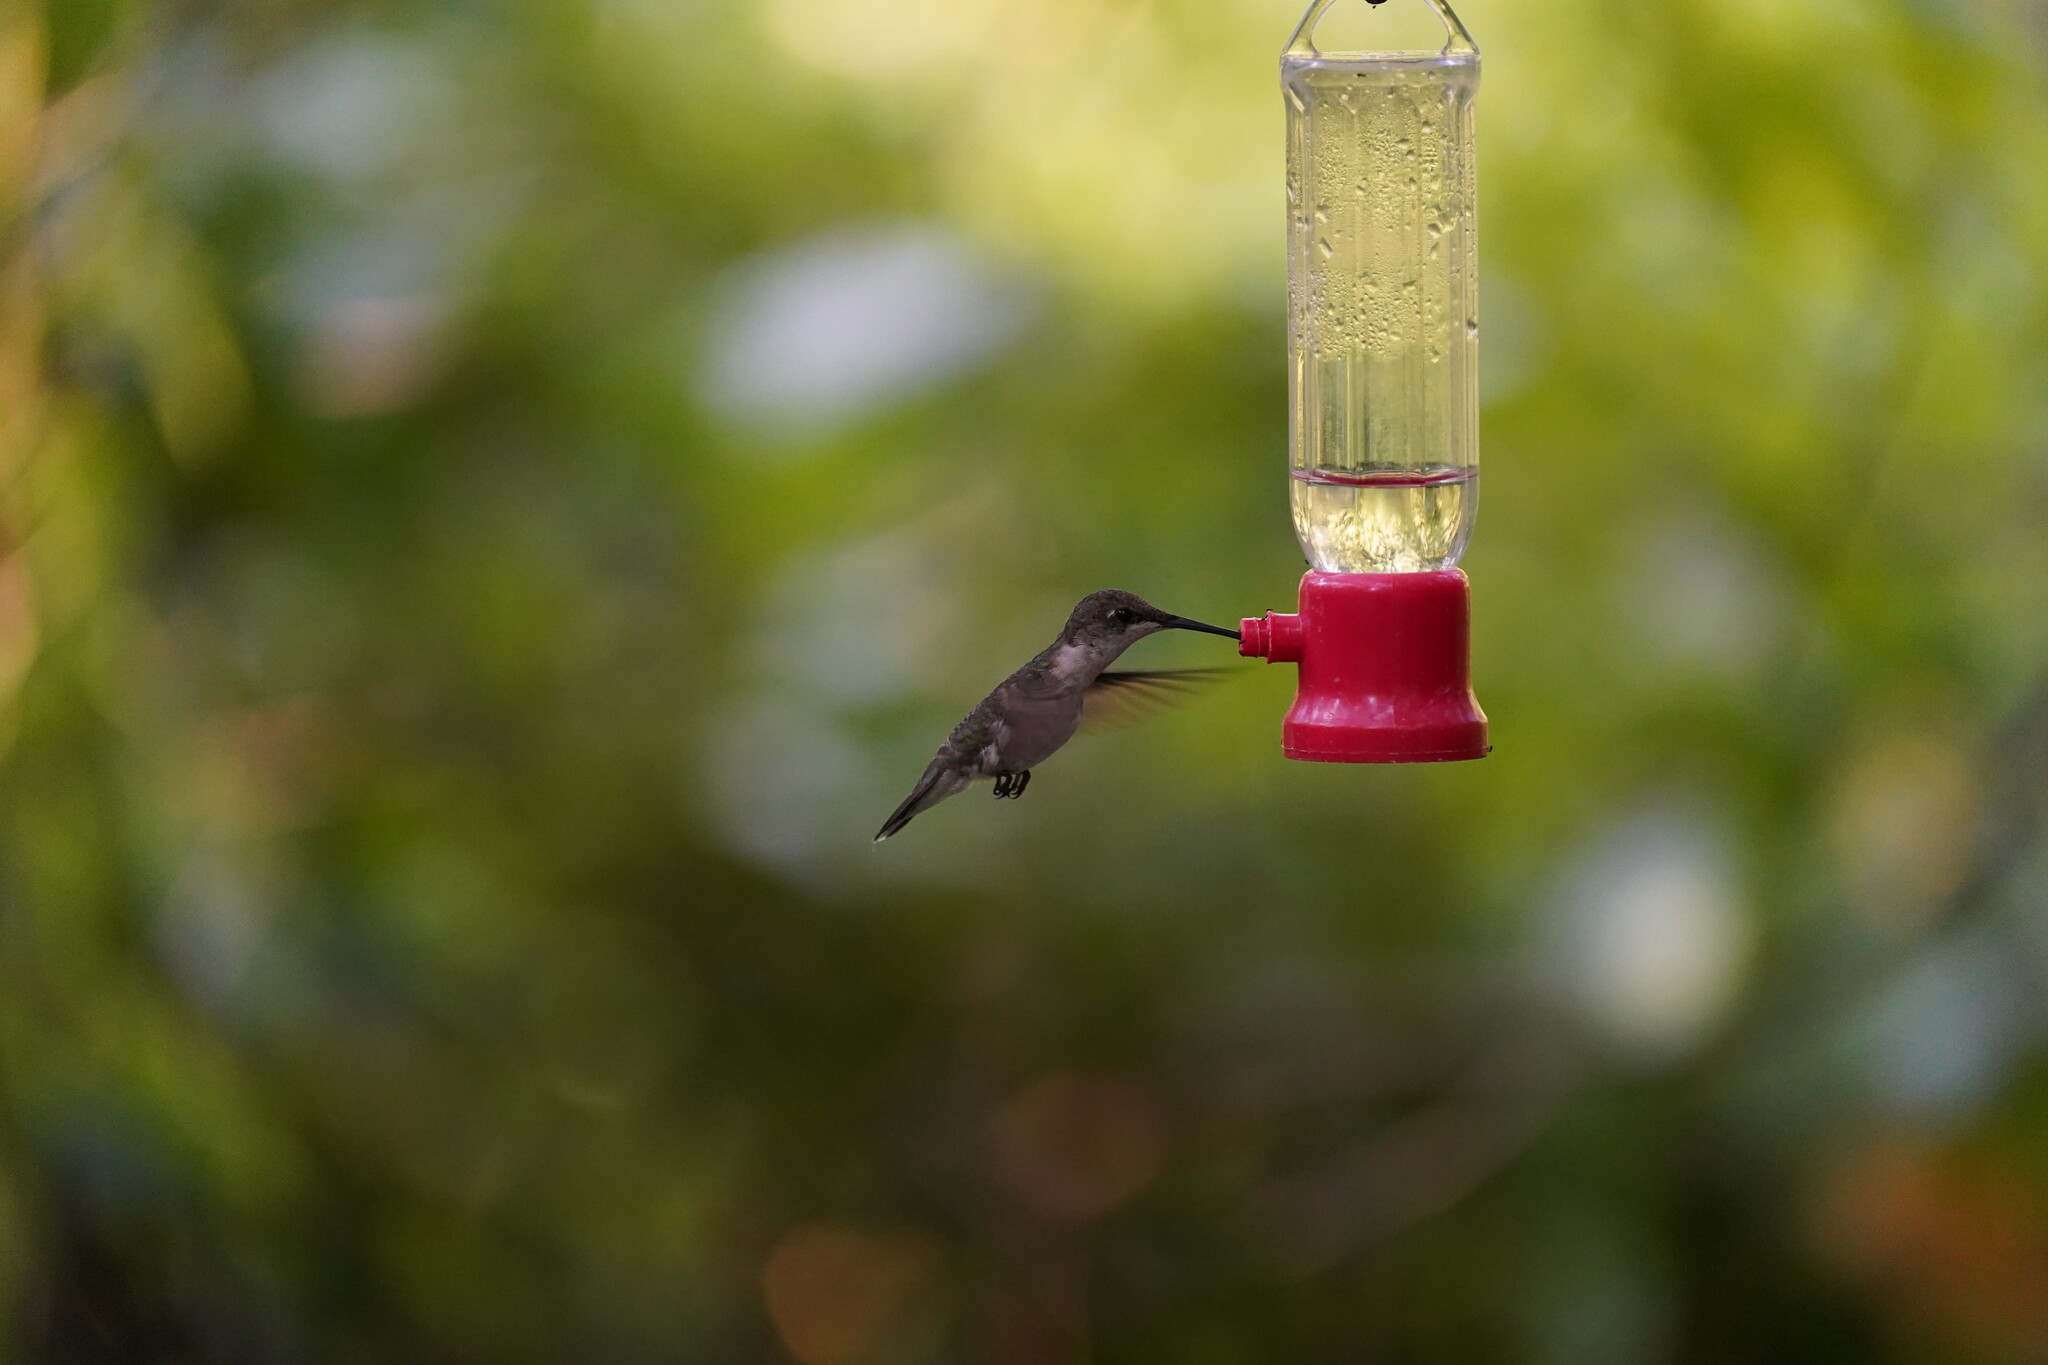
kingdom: Animalia
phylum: Chordata
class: Aves
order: Apodiformes
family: Trochilidae
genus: Archilochus
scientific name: Archilochus colubris
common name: Ruby-throated hummingbird
